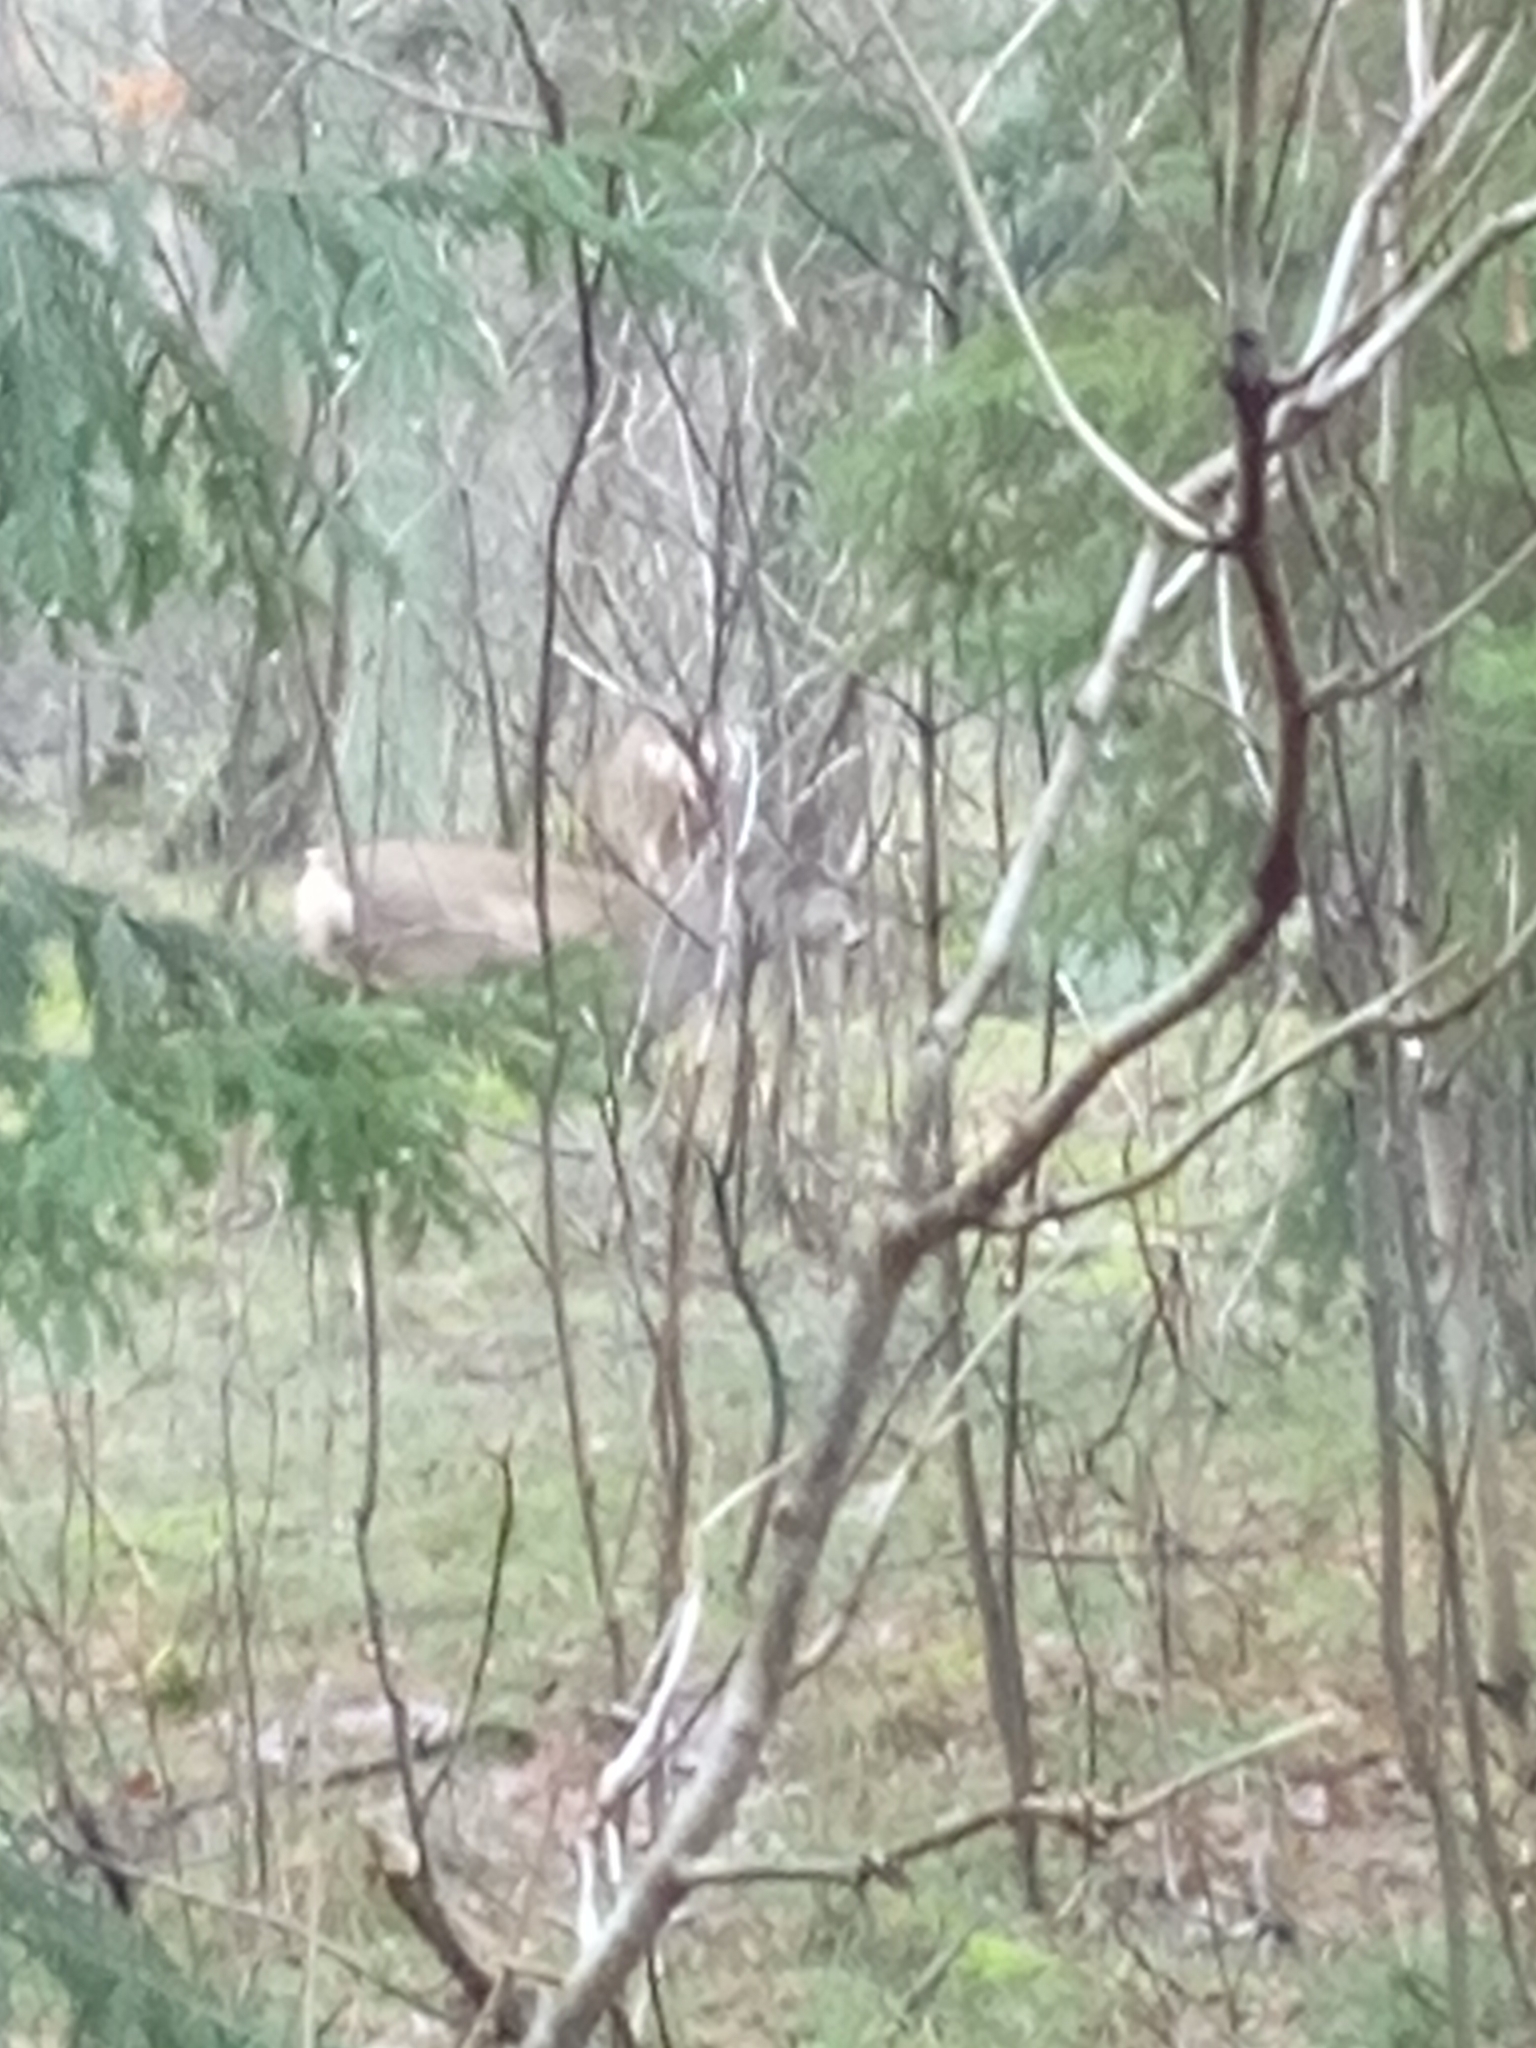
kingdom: Animalia
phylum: Chordata
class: Mammalia
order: Artiodactyla
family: Cervidae
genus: Capreolus
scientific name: Capreolus capreolus
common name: Western roe deer
